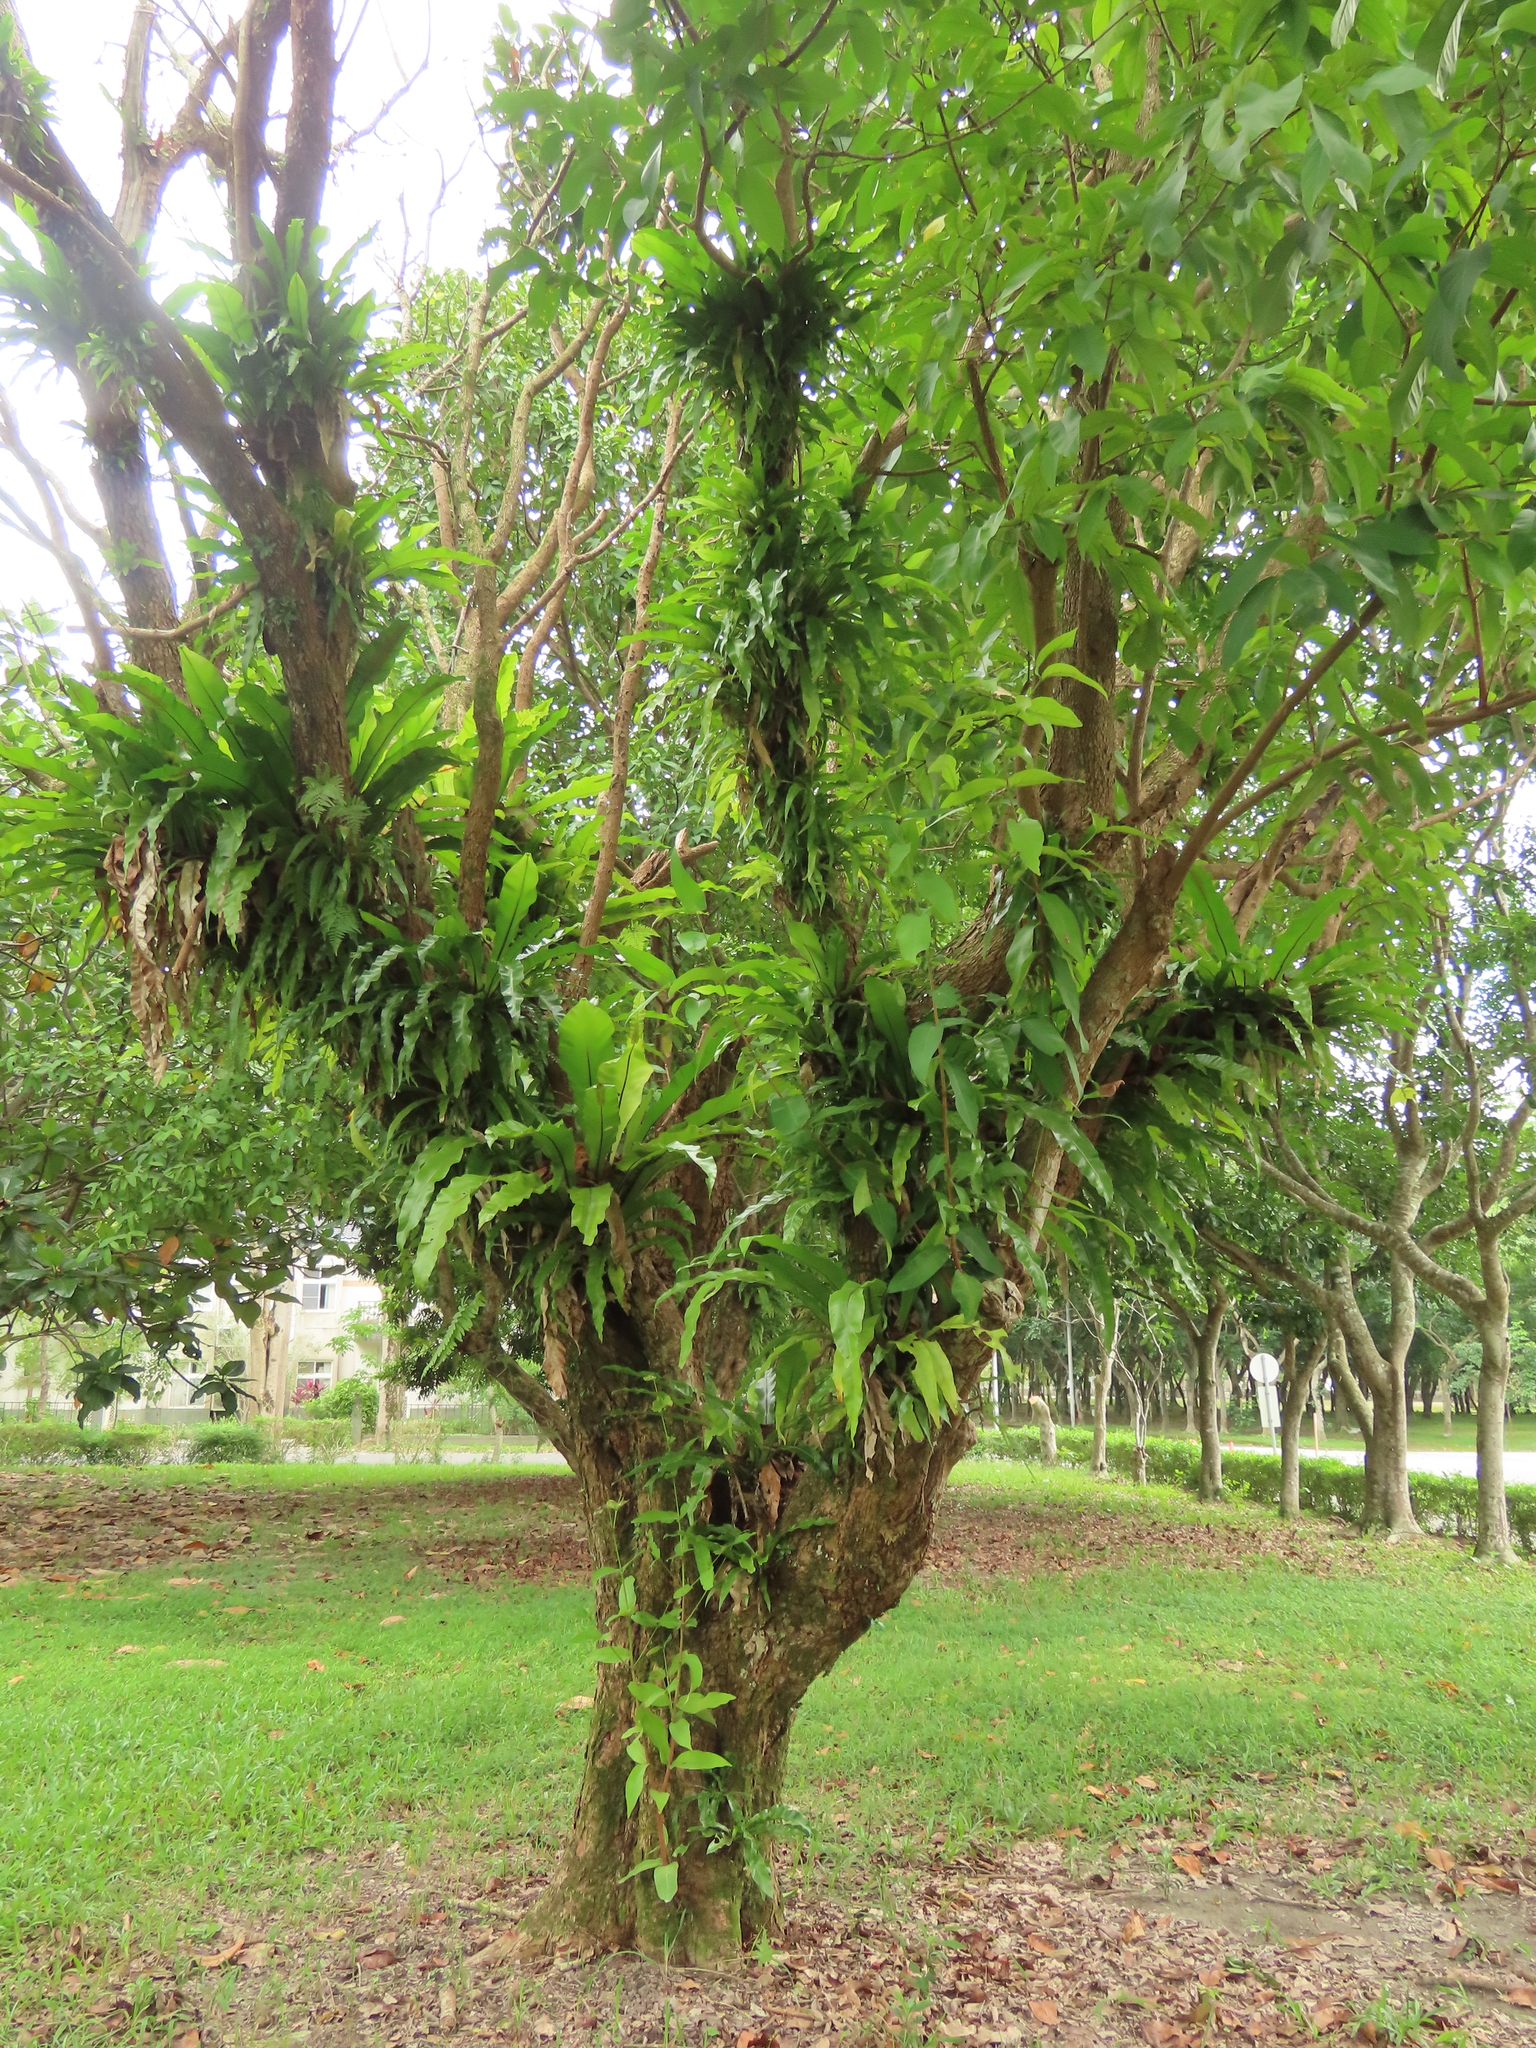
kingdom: Plantae
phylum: Tracheophyta
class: Polypodiopsida
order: Polypodiales
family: Aspleniaceae
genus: Asplenium
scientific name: Asplenium setoi
